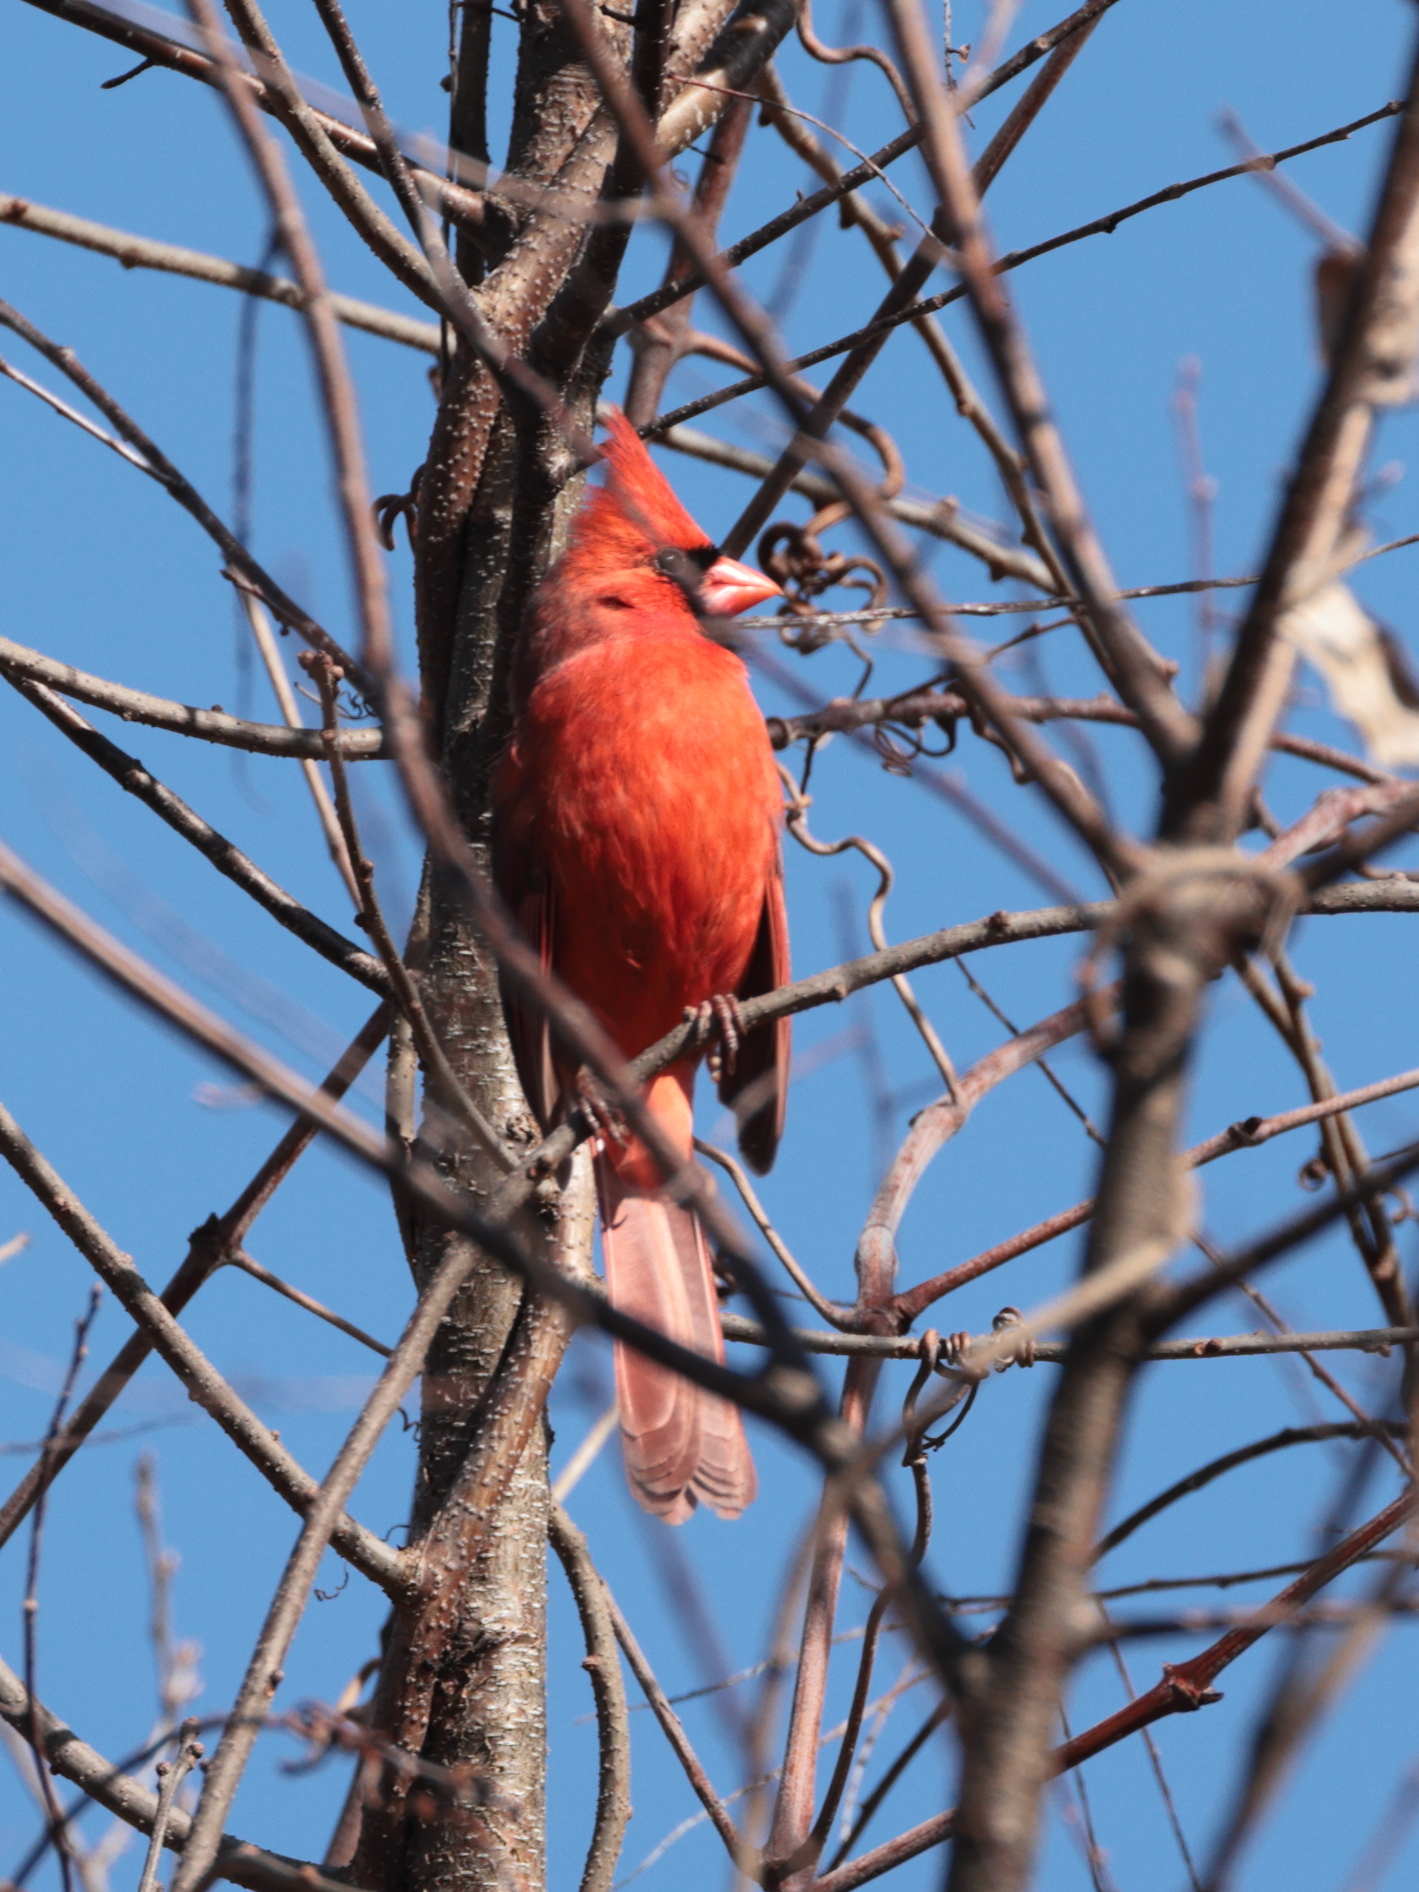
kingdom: Animalia
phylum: Chordata
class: Aves
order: Passeriformes
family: Cardinalidae
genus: Cardinalis
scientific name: Cardinalis cardinalis
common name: Northern cardinal
